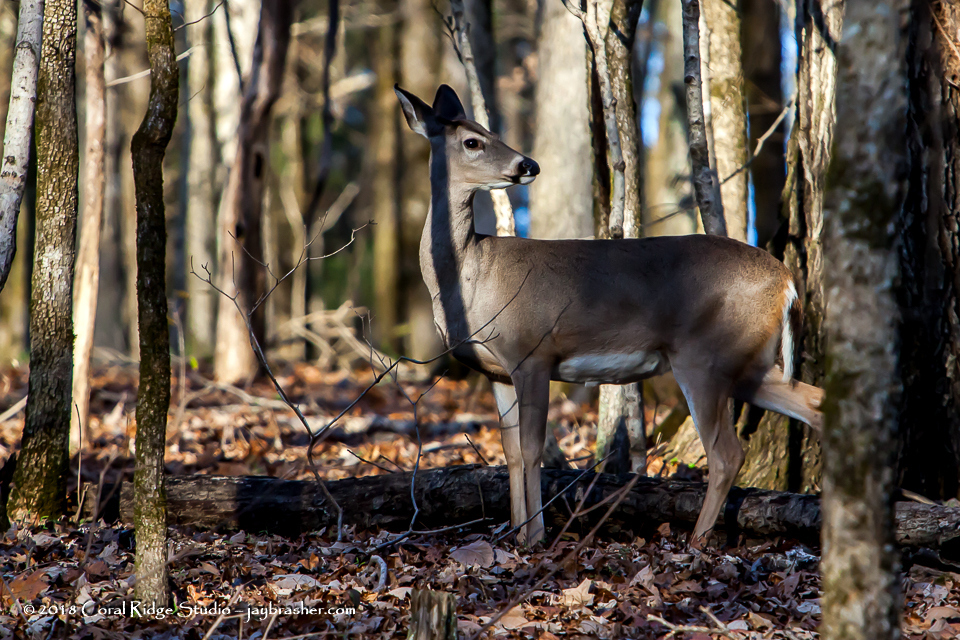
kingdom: Animalia
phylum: Chordata
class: Mammalia
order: Artiodactyla
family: Cervidae
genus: Odocoileus
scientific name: Odocoileus virginianus
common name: White-tailed deer
